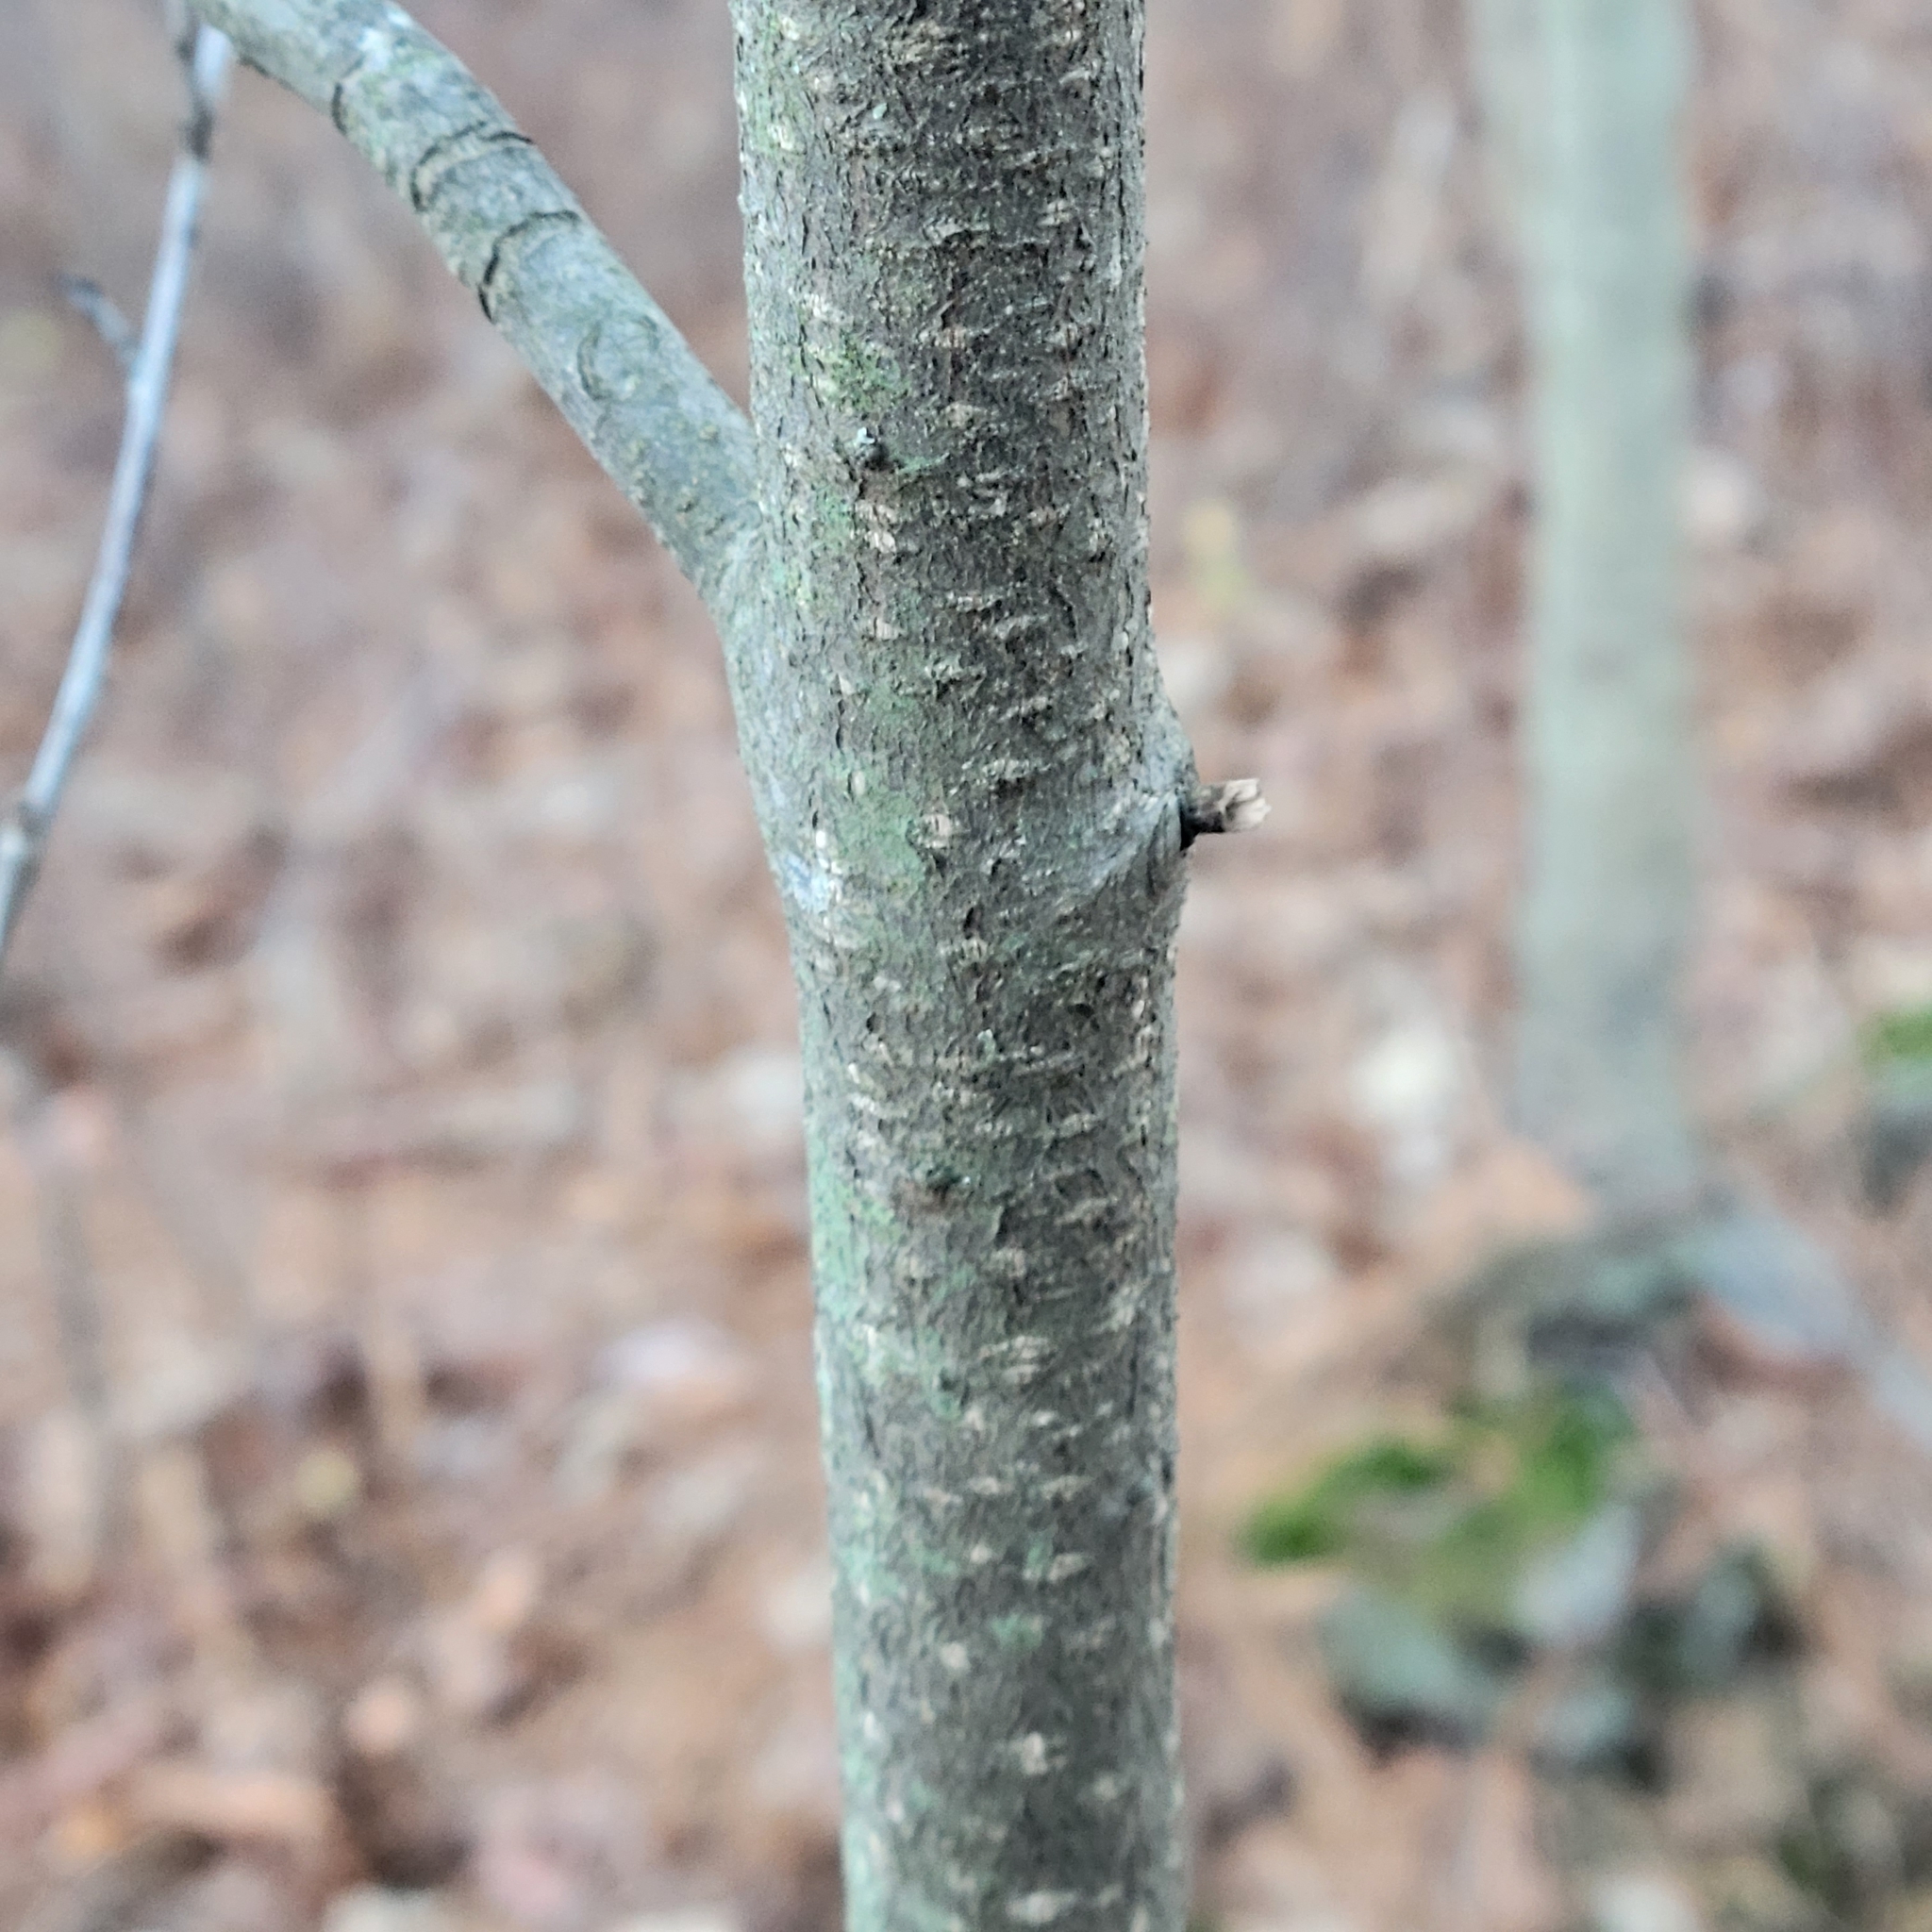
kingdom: Plantae
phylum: Tracheophyta
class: Magnoliopsida
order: Rosales
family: Rhamnaceae
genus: Frangula
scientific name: Frangula alnus
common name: Alder buckthorn
